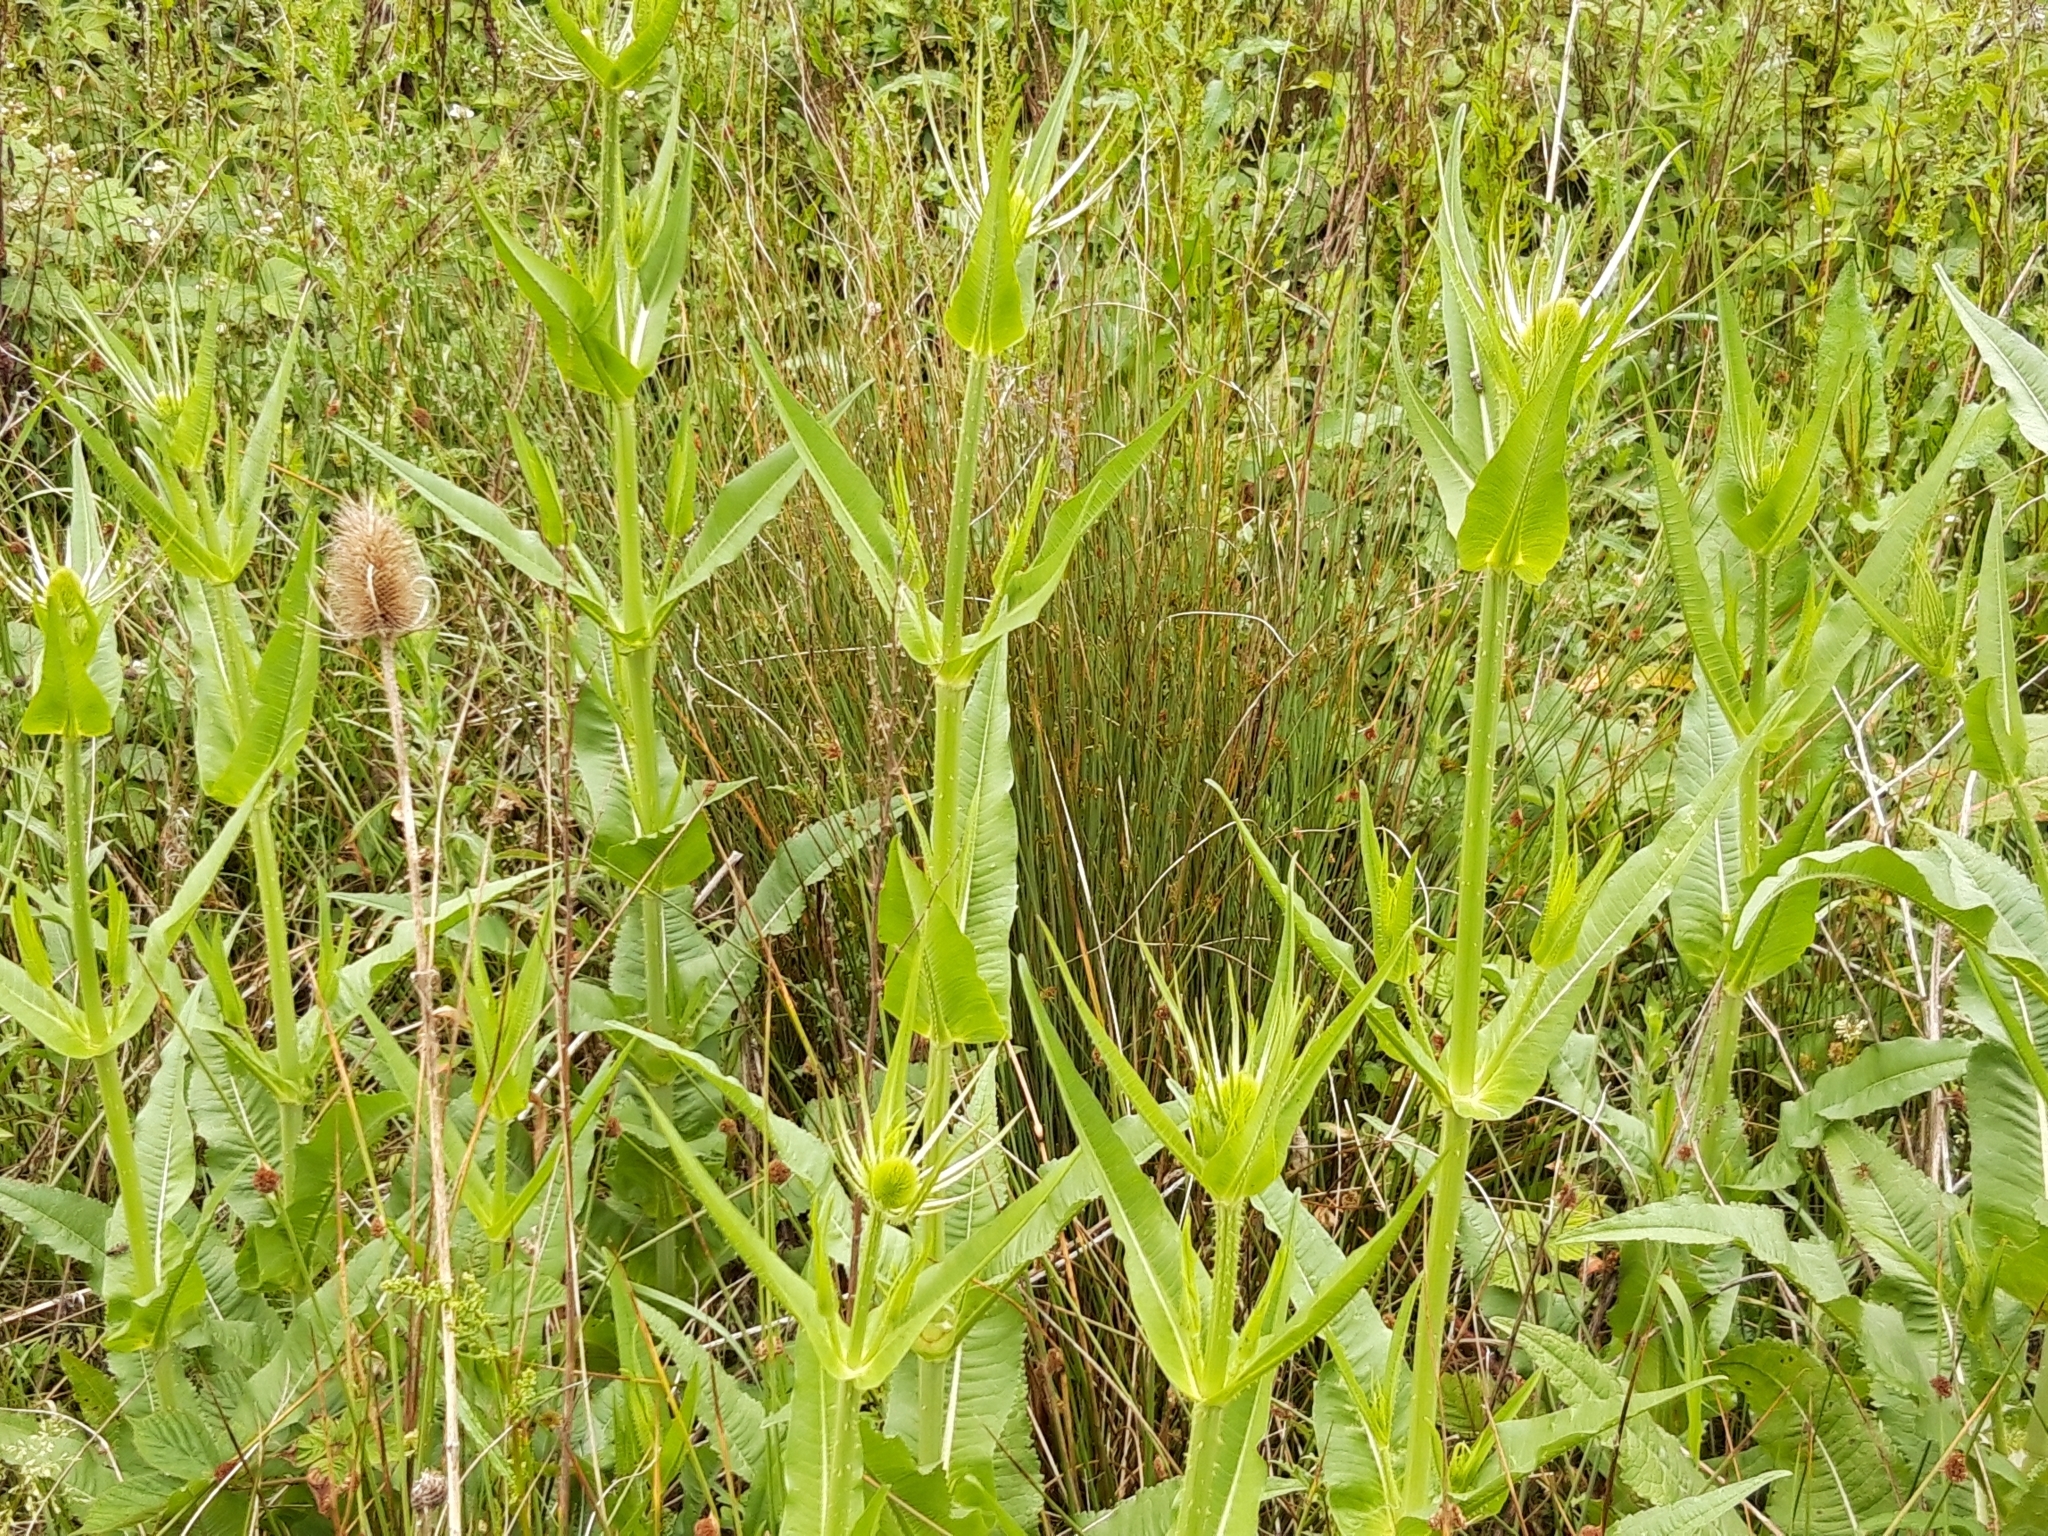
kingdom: Plantae
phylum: Tracheophyta
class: Magnoliopsida
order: Dipsacales
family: Caprifoliaceae
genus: Dipsacus
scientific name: Dipsacus fullonum
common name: Teasel
